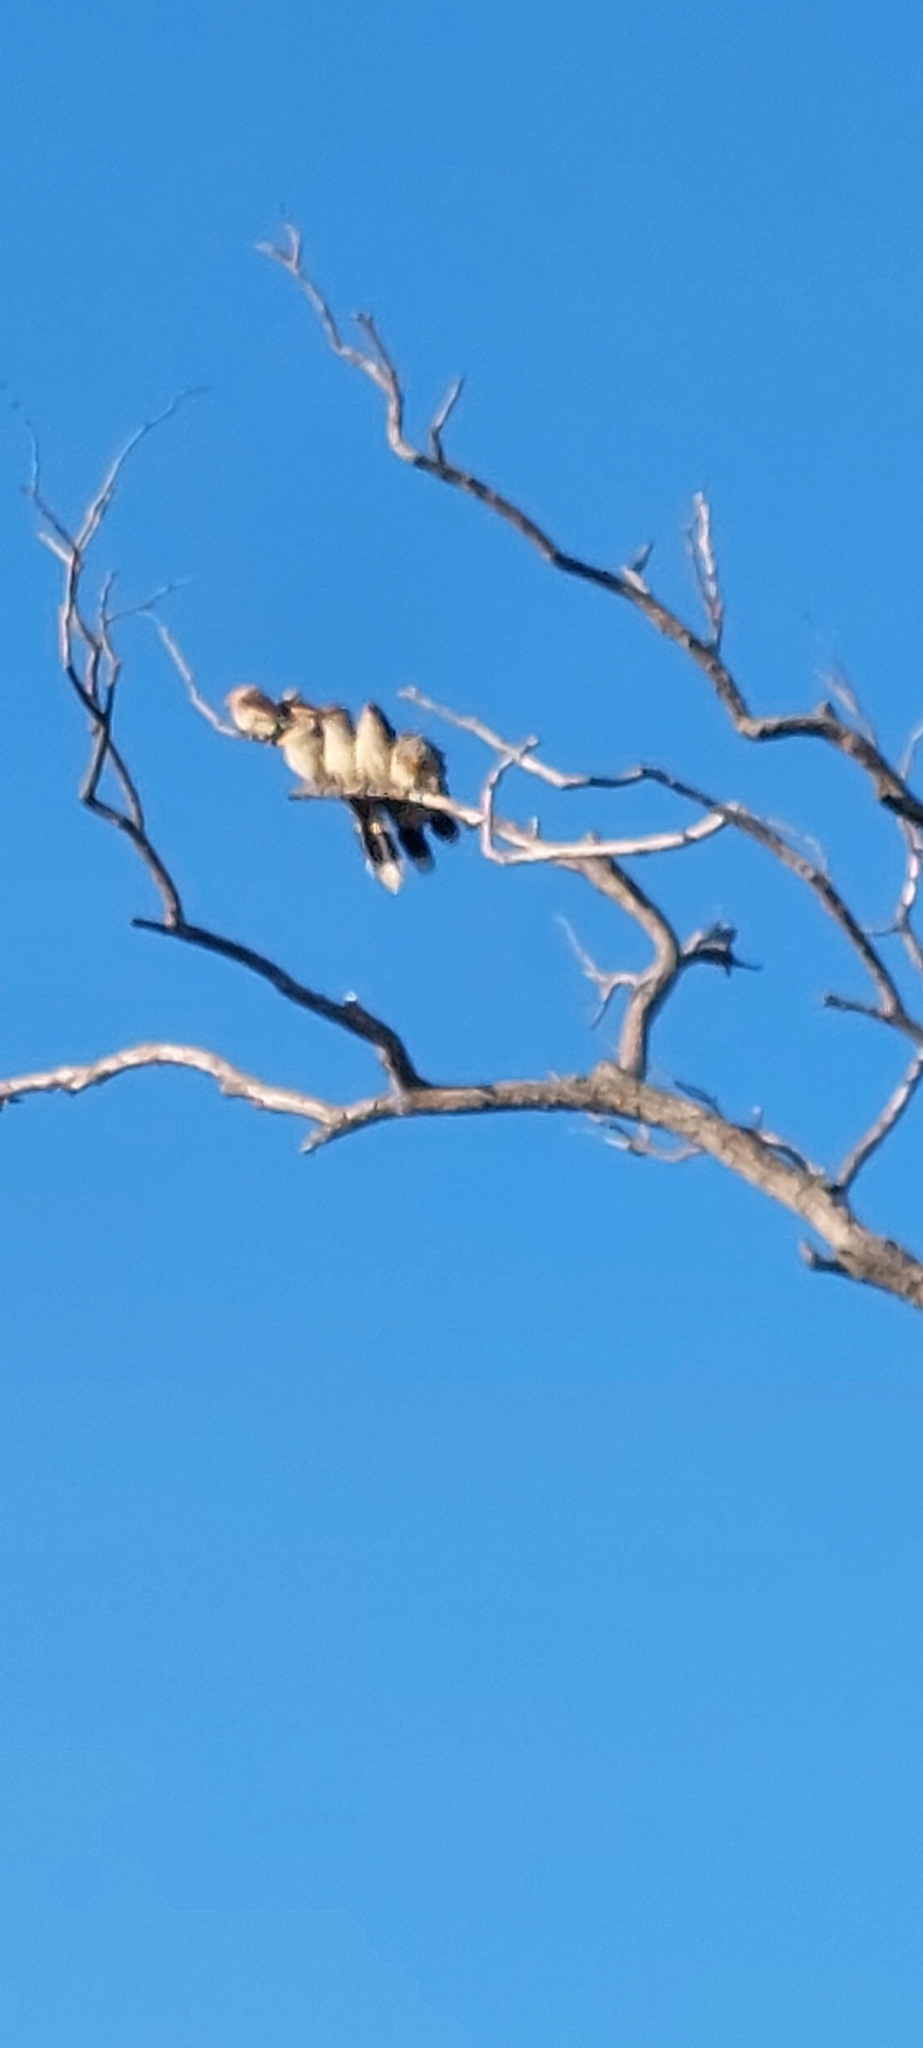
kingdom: Animalia
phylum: Chordata
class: Aves
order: Cuculiformes
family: Cuculidae
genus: Guira
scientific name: Guira guira
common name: Guira cuckoo
